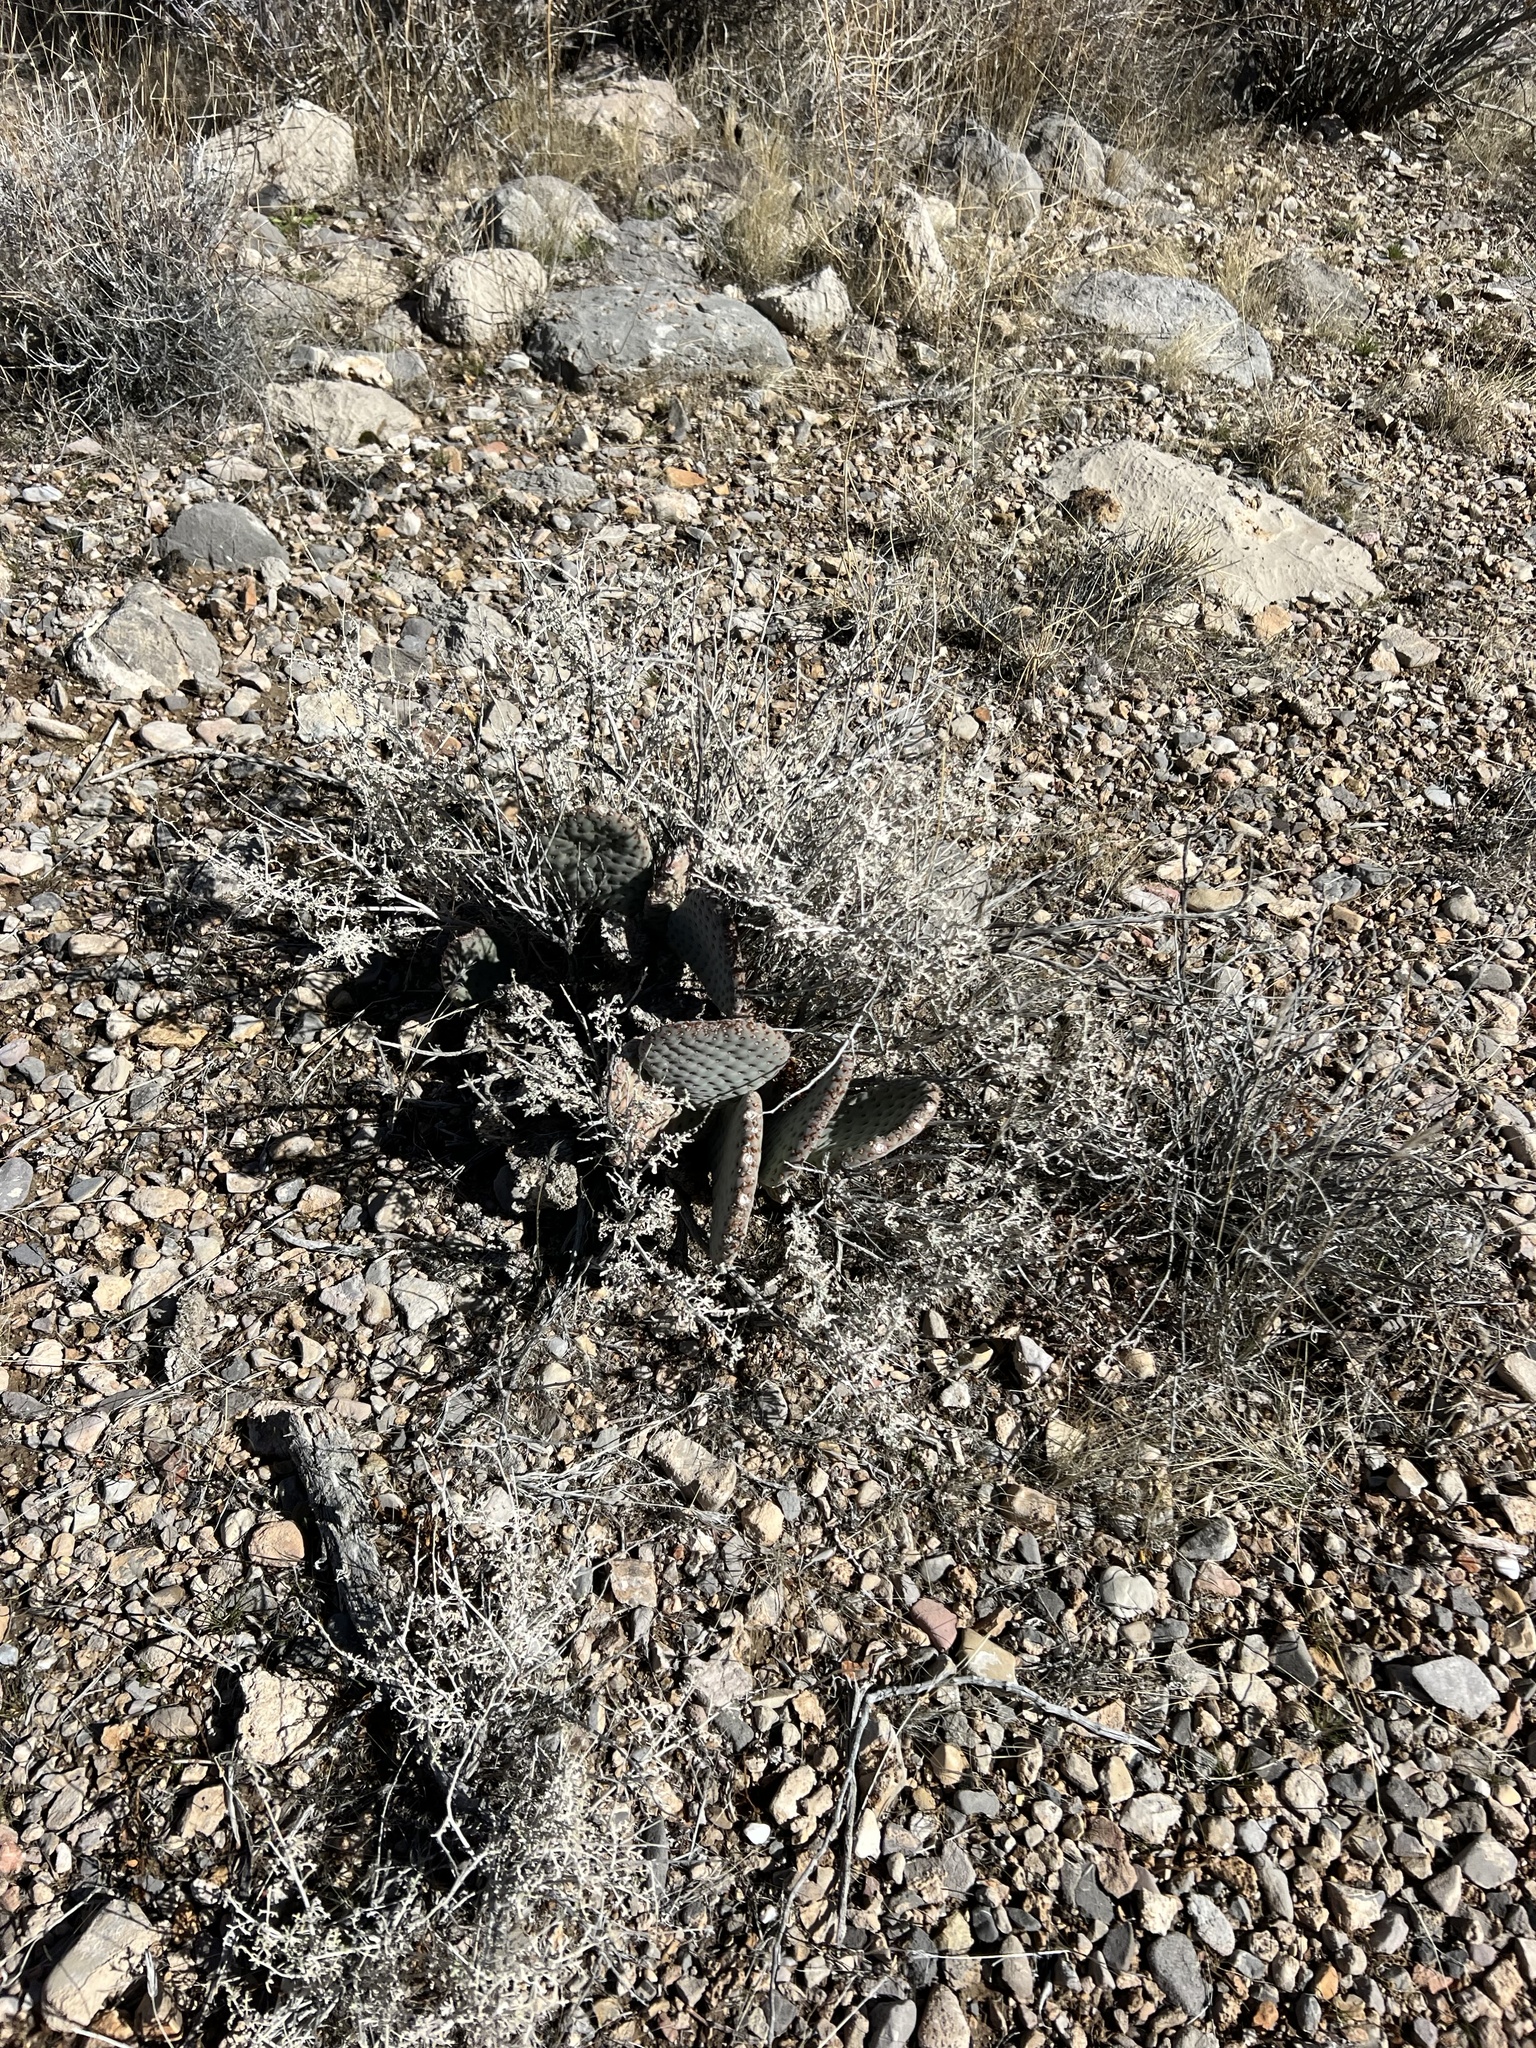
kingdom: Plantae
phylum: Tracheophyta
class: Magnoliopsida
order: Caryophyllales
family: Cactaceae
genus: Opuntia
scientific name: Opuntia basilaris
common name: Beavertail prickly-pear
